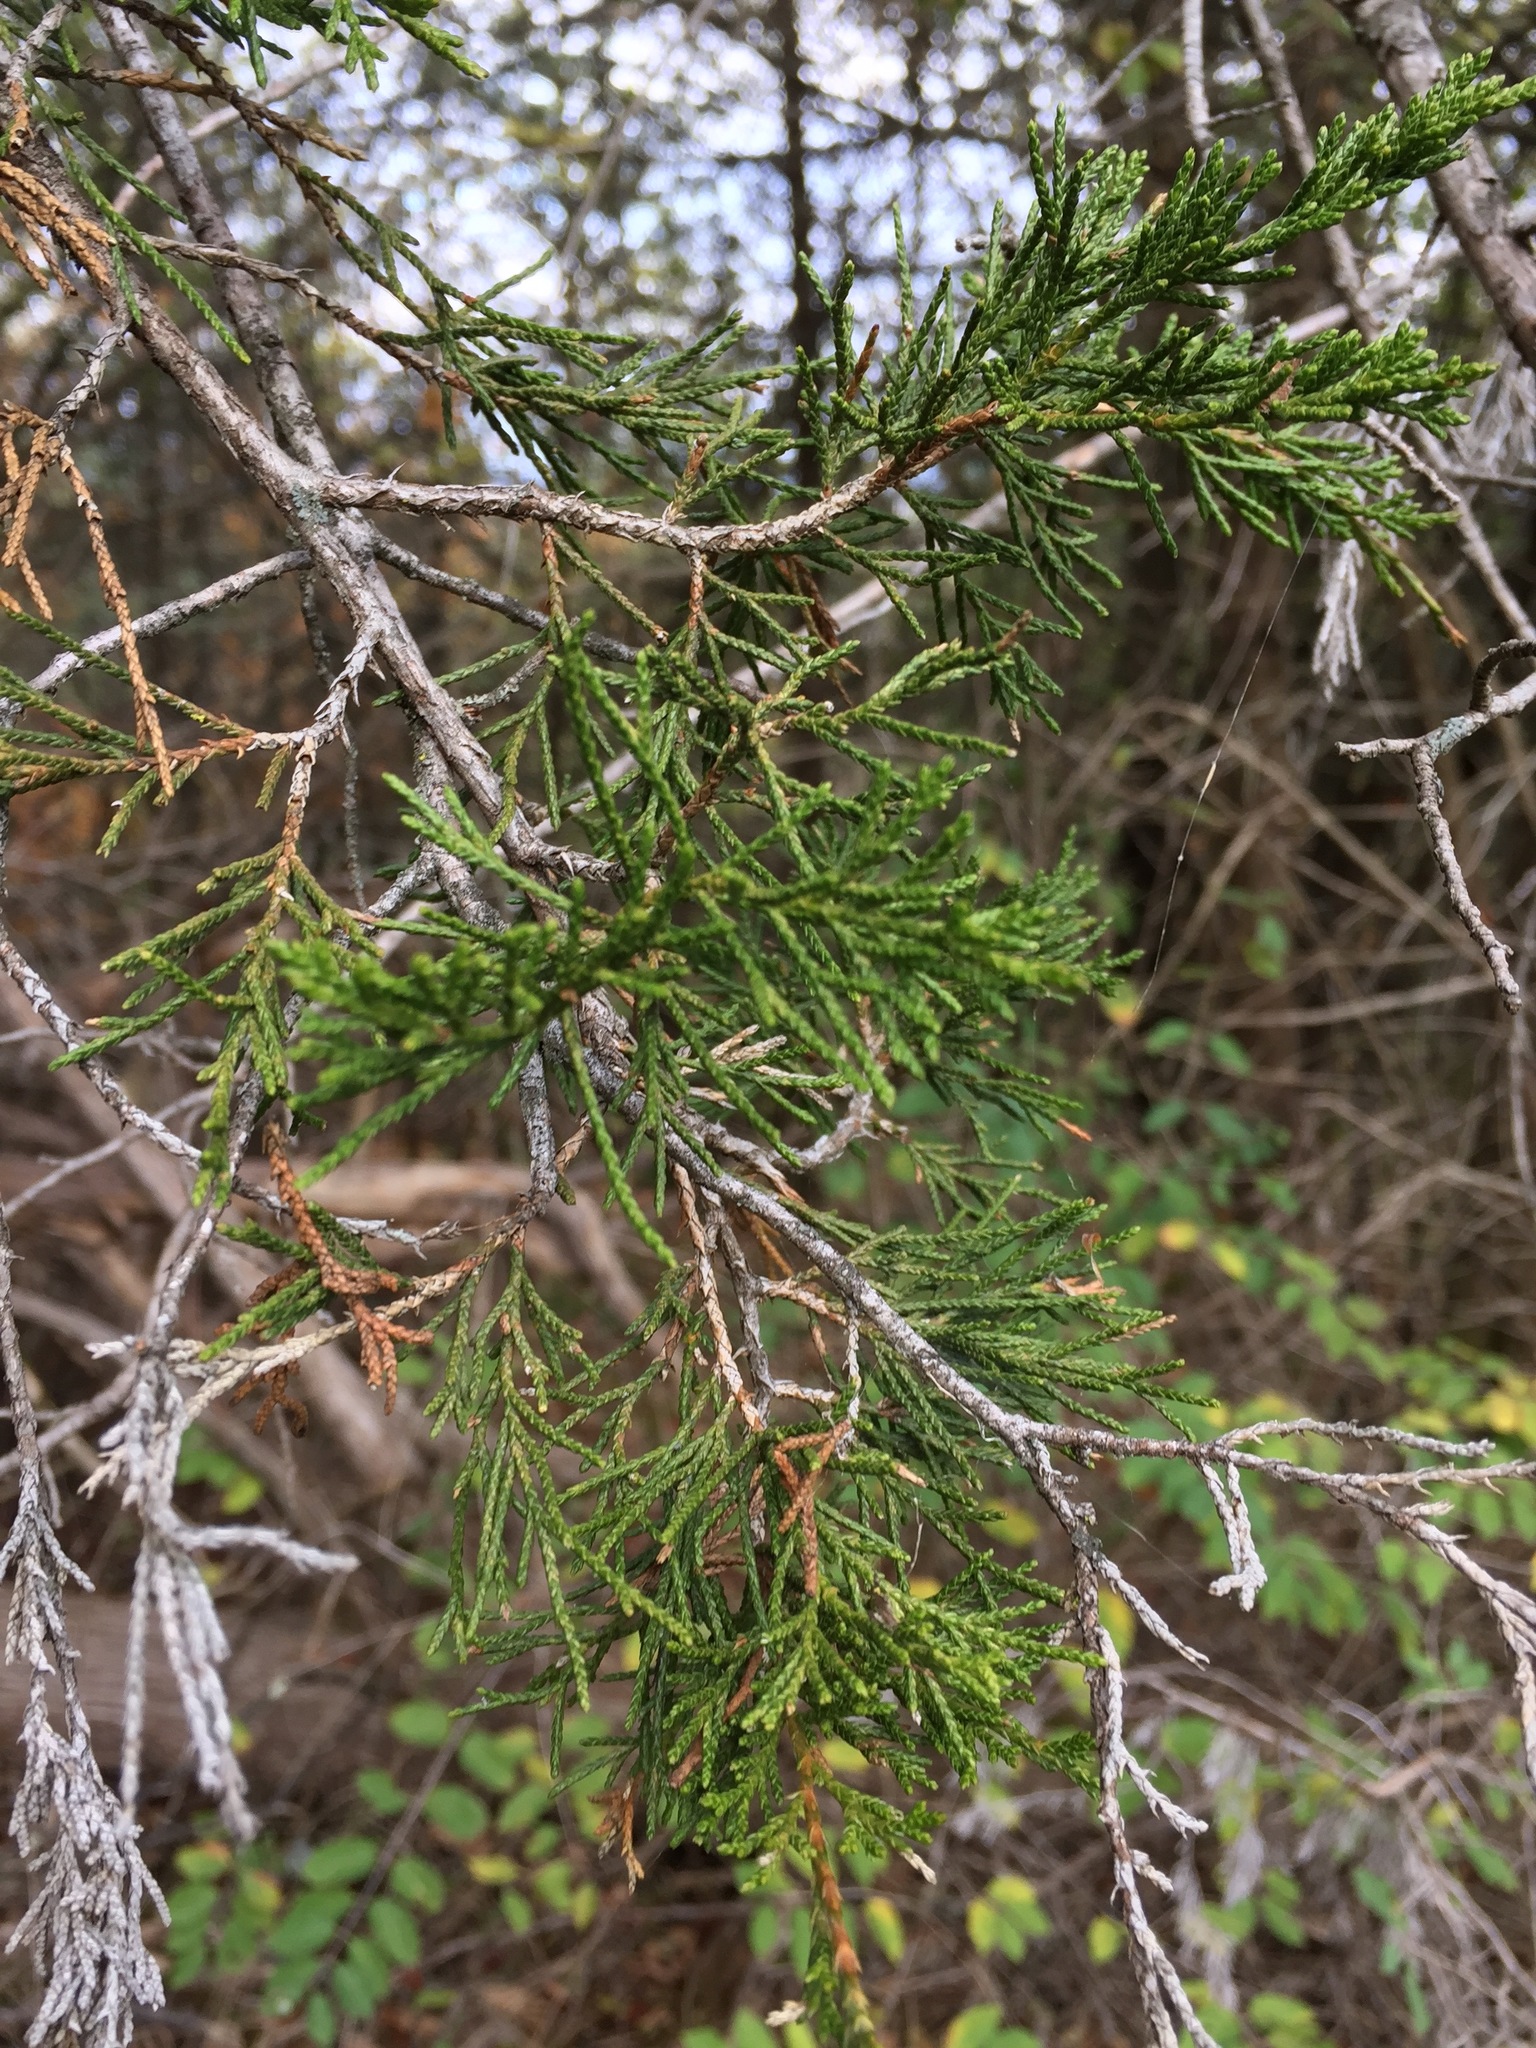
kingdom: Plantae
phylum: Tracheophyta
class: Pinopsida
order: Pinales
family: Cupressaceae
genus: Juniperus
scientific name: Juniperus virginiana
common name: Red juniper
